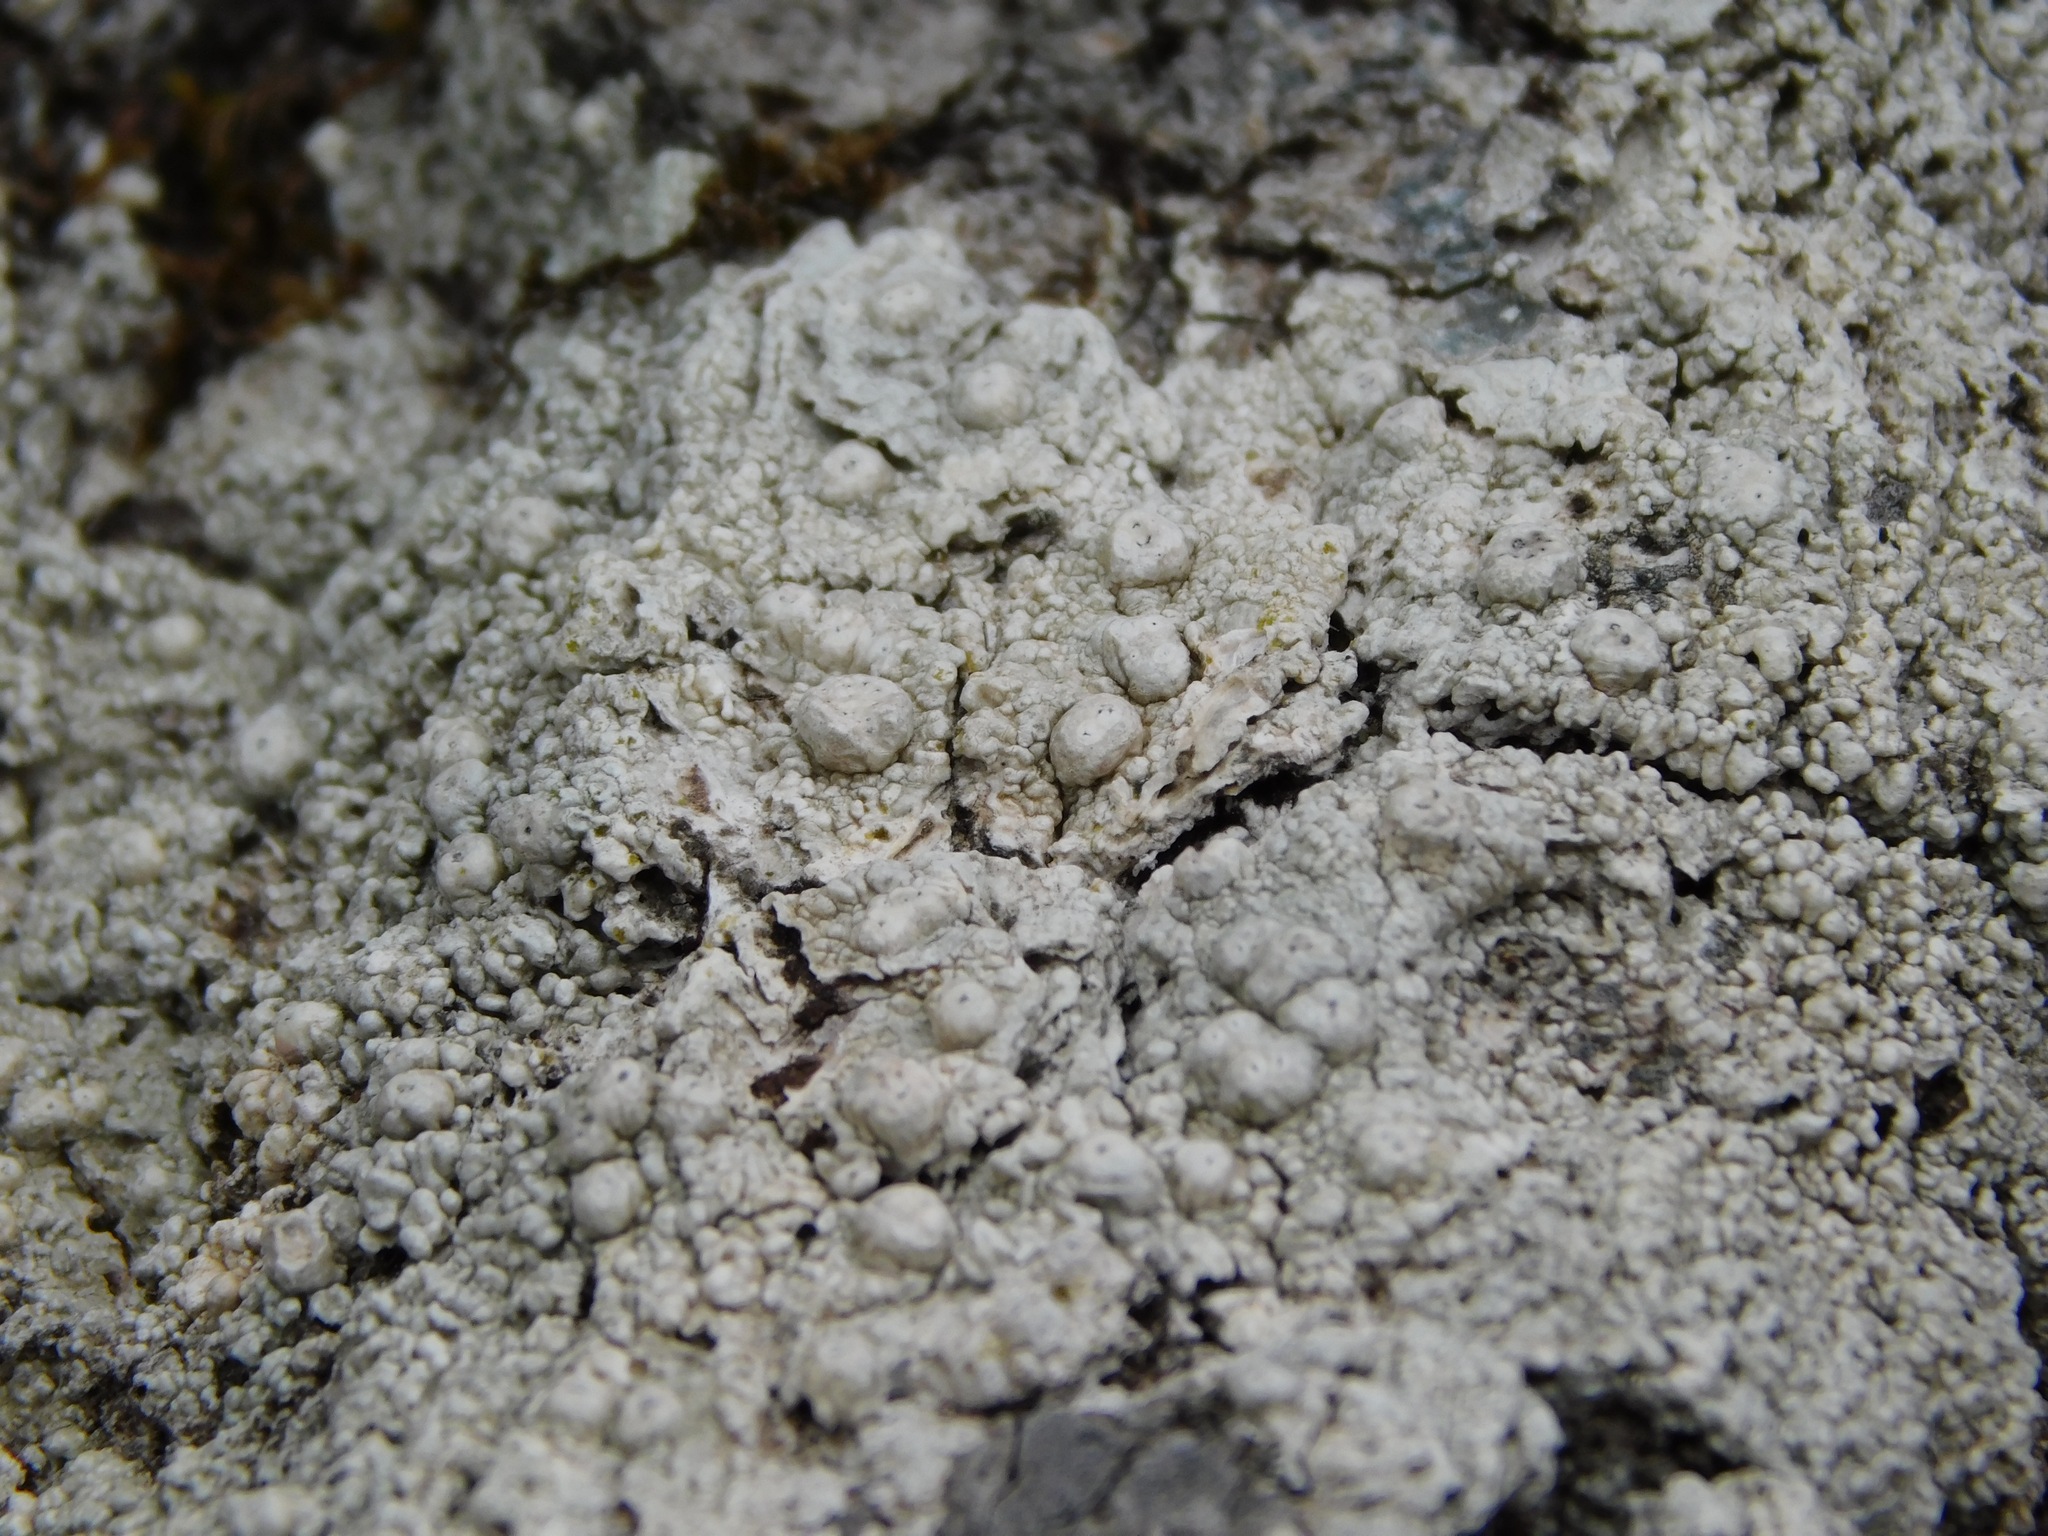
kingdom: Fungi
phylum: Ascomycota
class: Lecanoromycetes
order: Pertusariales
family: Pertusariaceae
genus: Pertusaria
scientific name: Pertusaria paratuberculifera
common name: Spotted wart lichen
